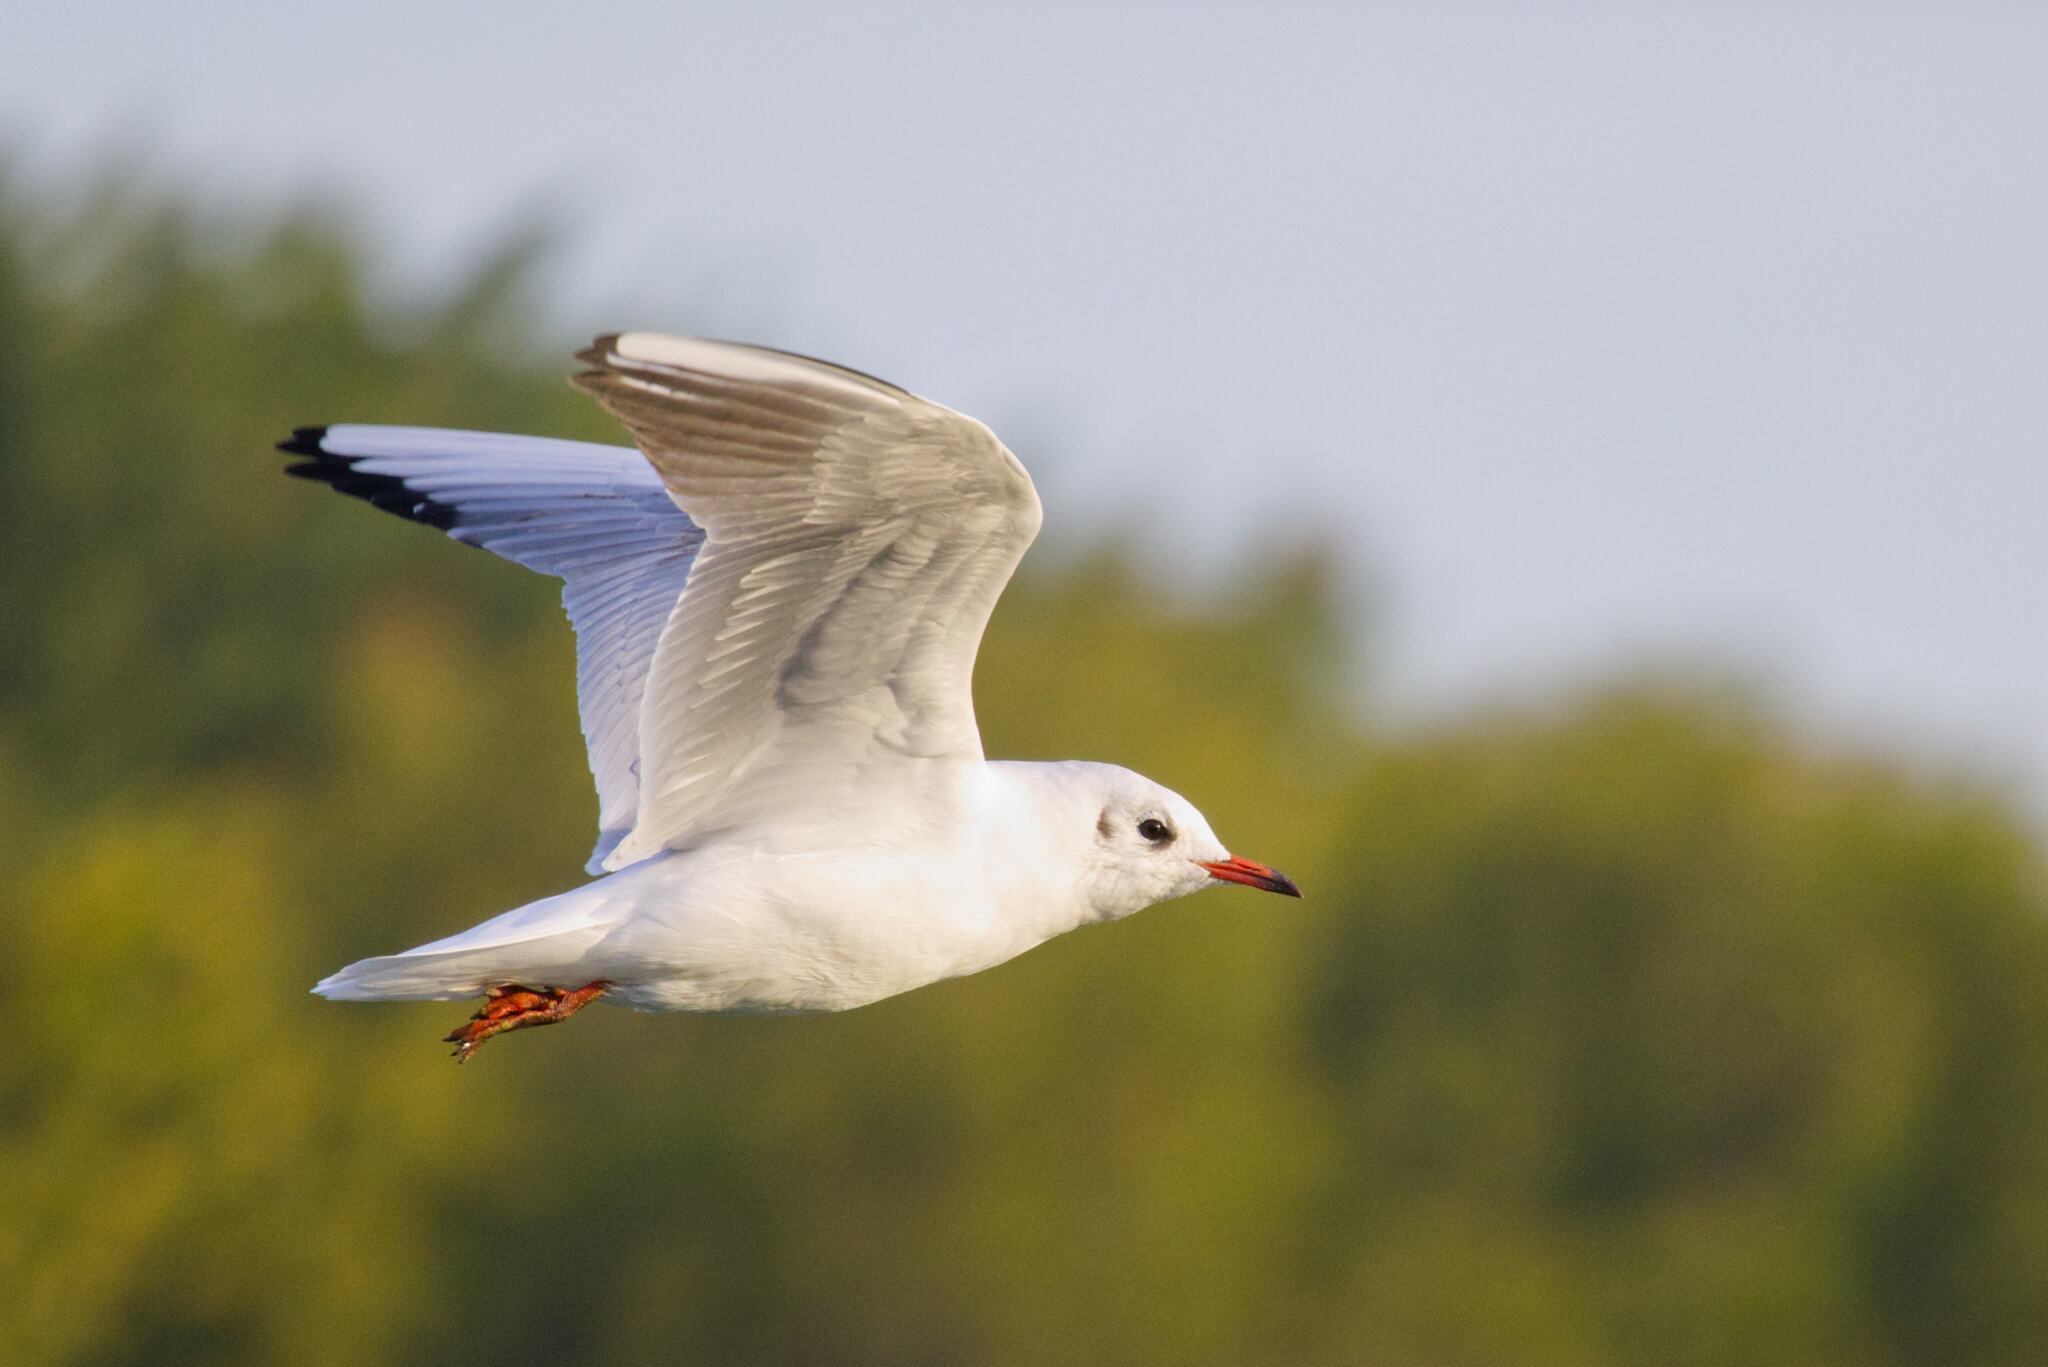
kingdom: Animalia
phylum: Chordata
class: Aves
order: Charadriiformes
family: Laridae
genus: Chroicocephalus
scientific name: Chroicocephalus ridibundus
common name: Black-headed gull
